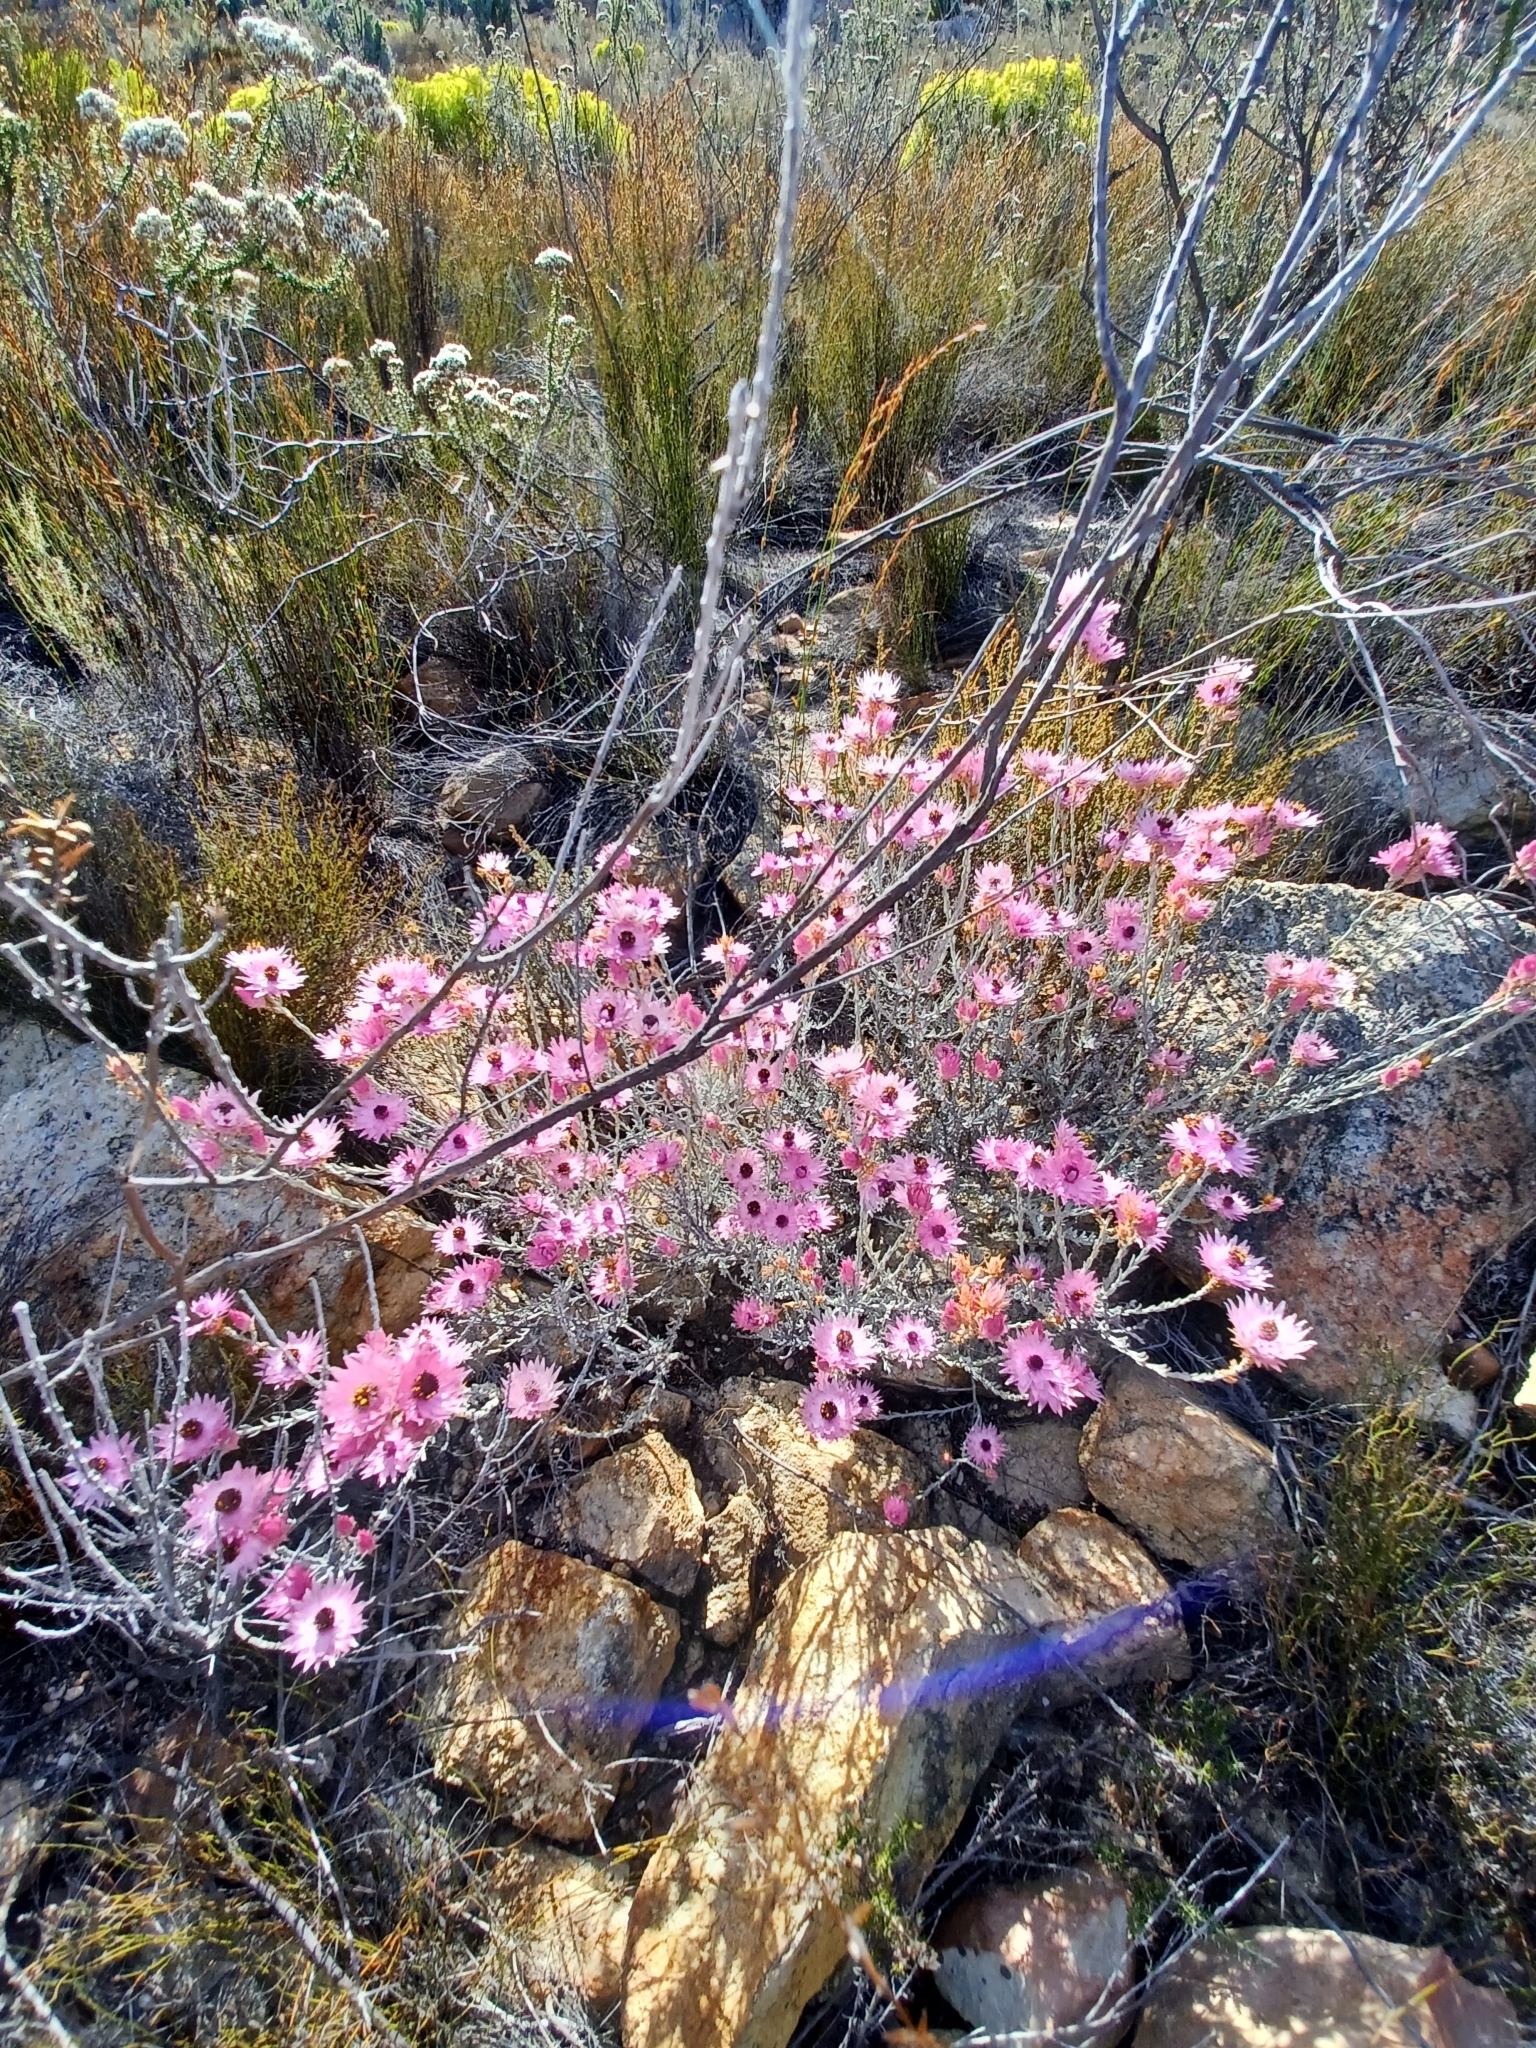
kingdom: Plantae
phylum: Tracheophyta
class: Magnoliopsida
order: Asterales
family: Asteraceae
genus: Syncarpha
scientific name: Syncarpha canescens
